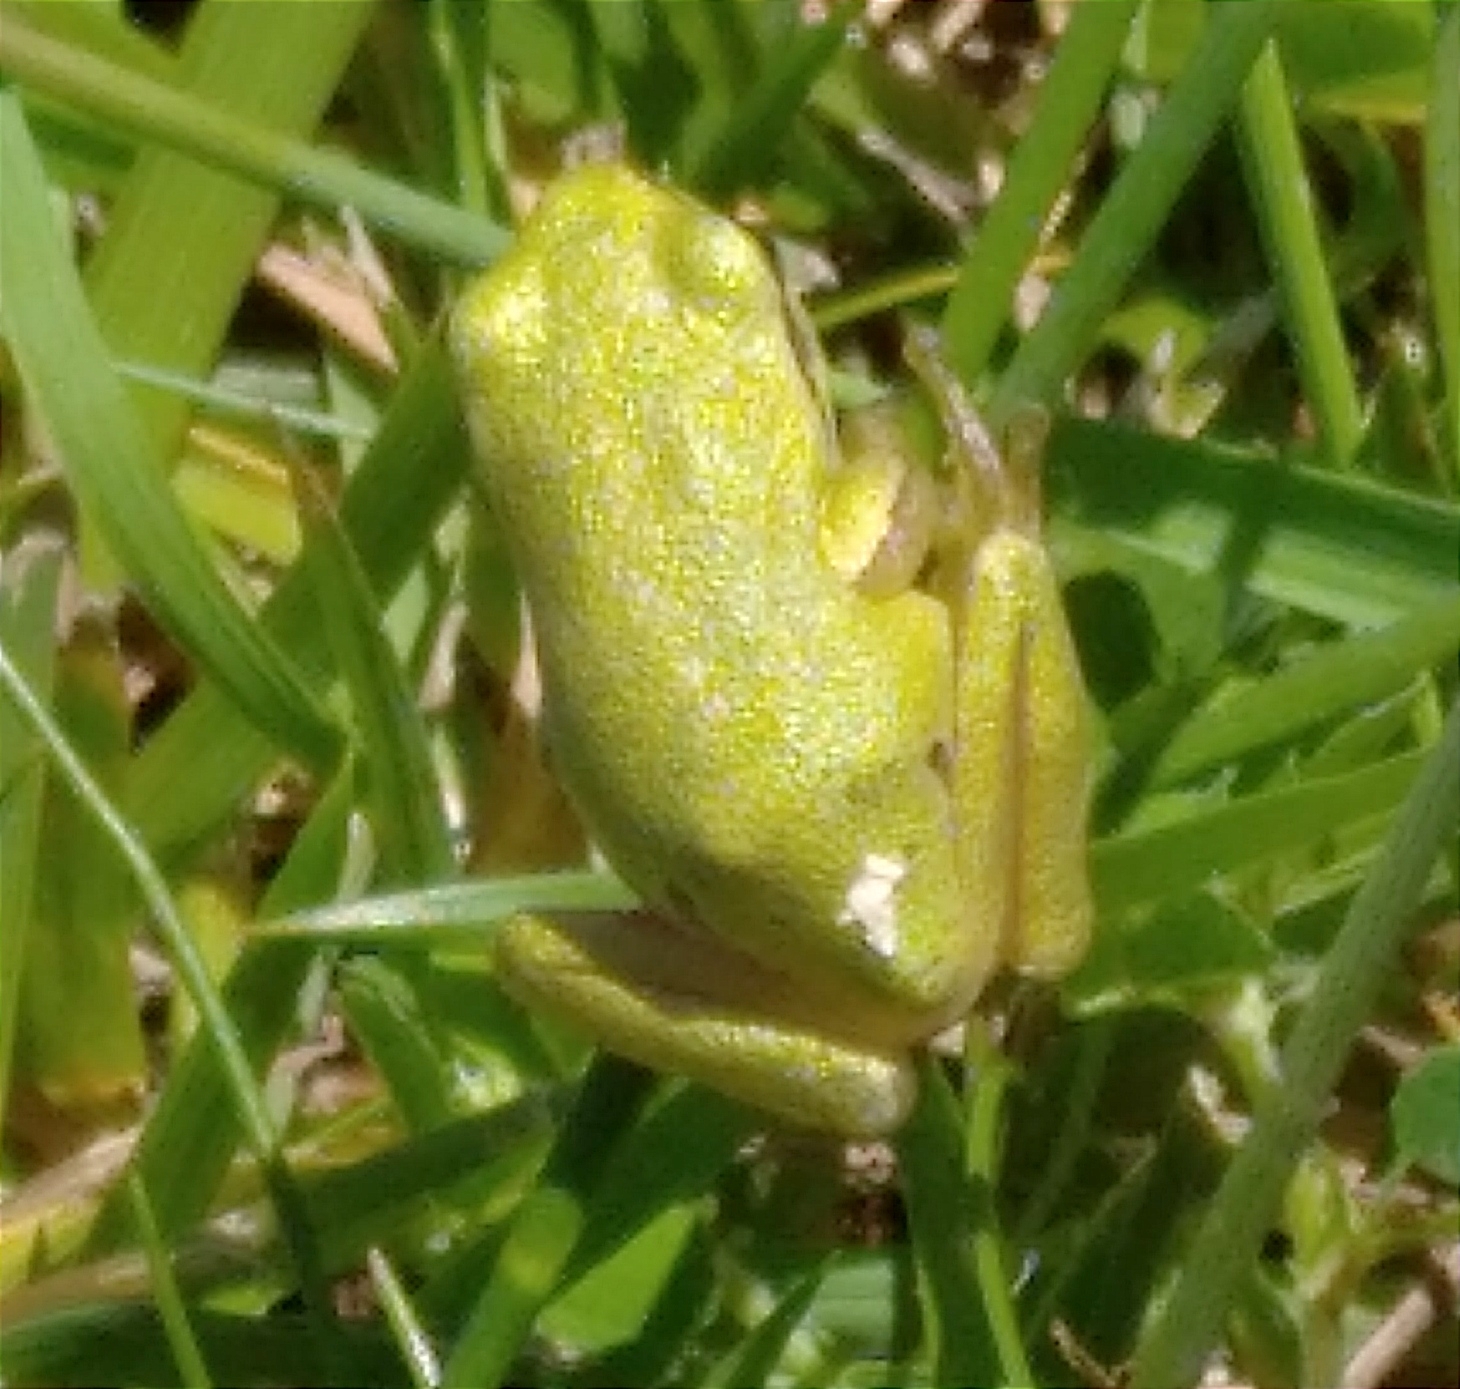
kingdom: Animalia
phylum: Chordata
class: Amphibia
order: Anura
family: Hylidae
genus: Hyla
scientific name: Hyla orientalis
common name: Caucasian treefrog
